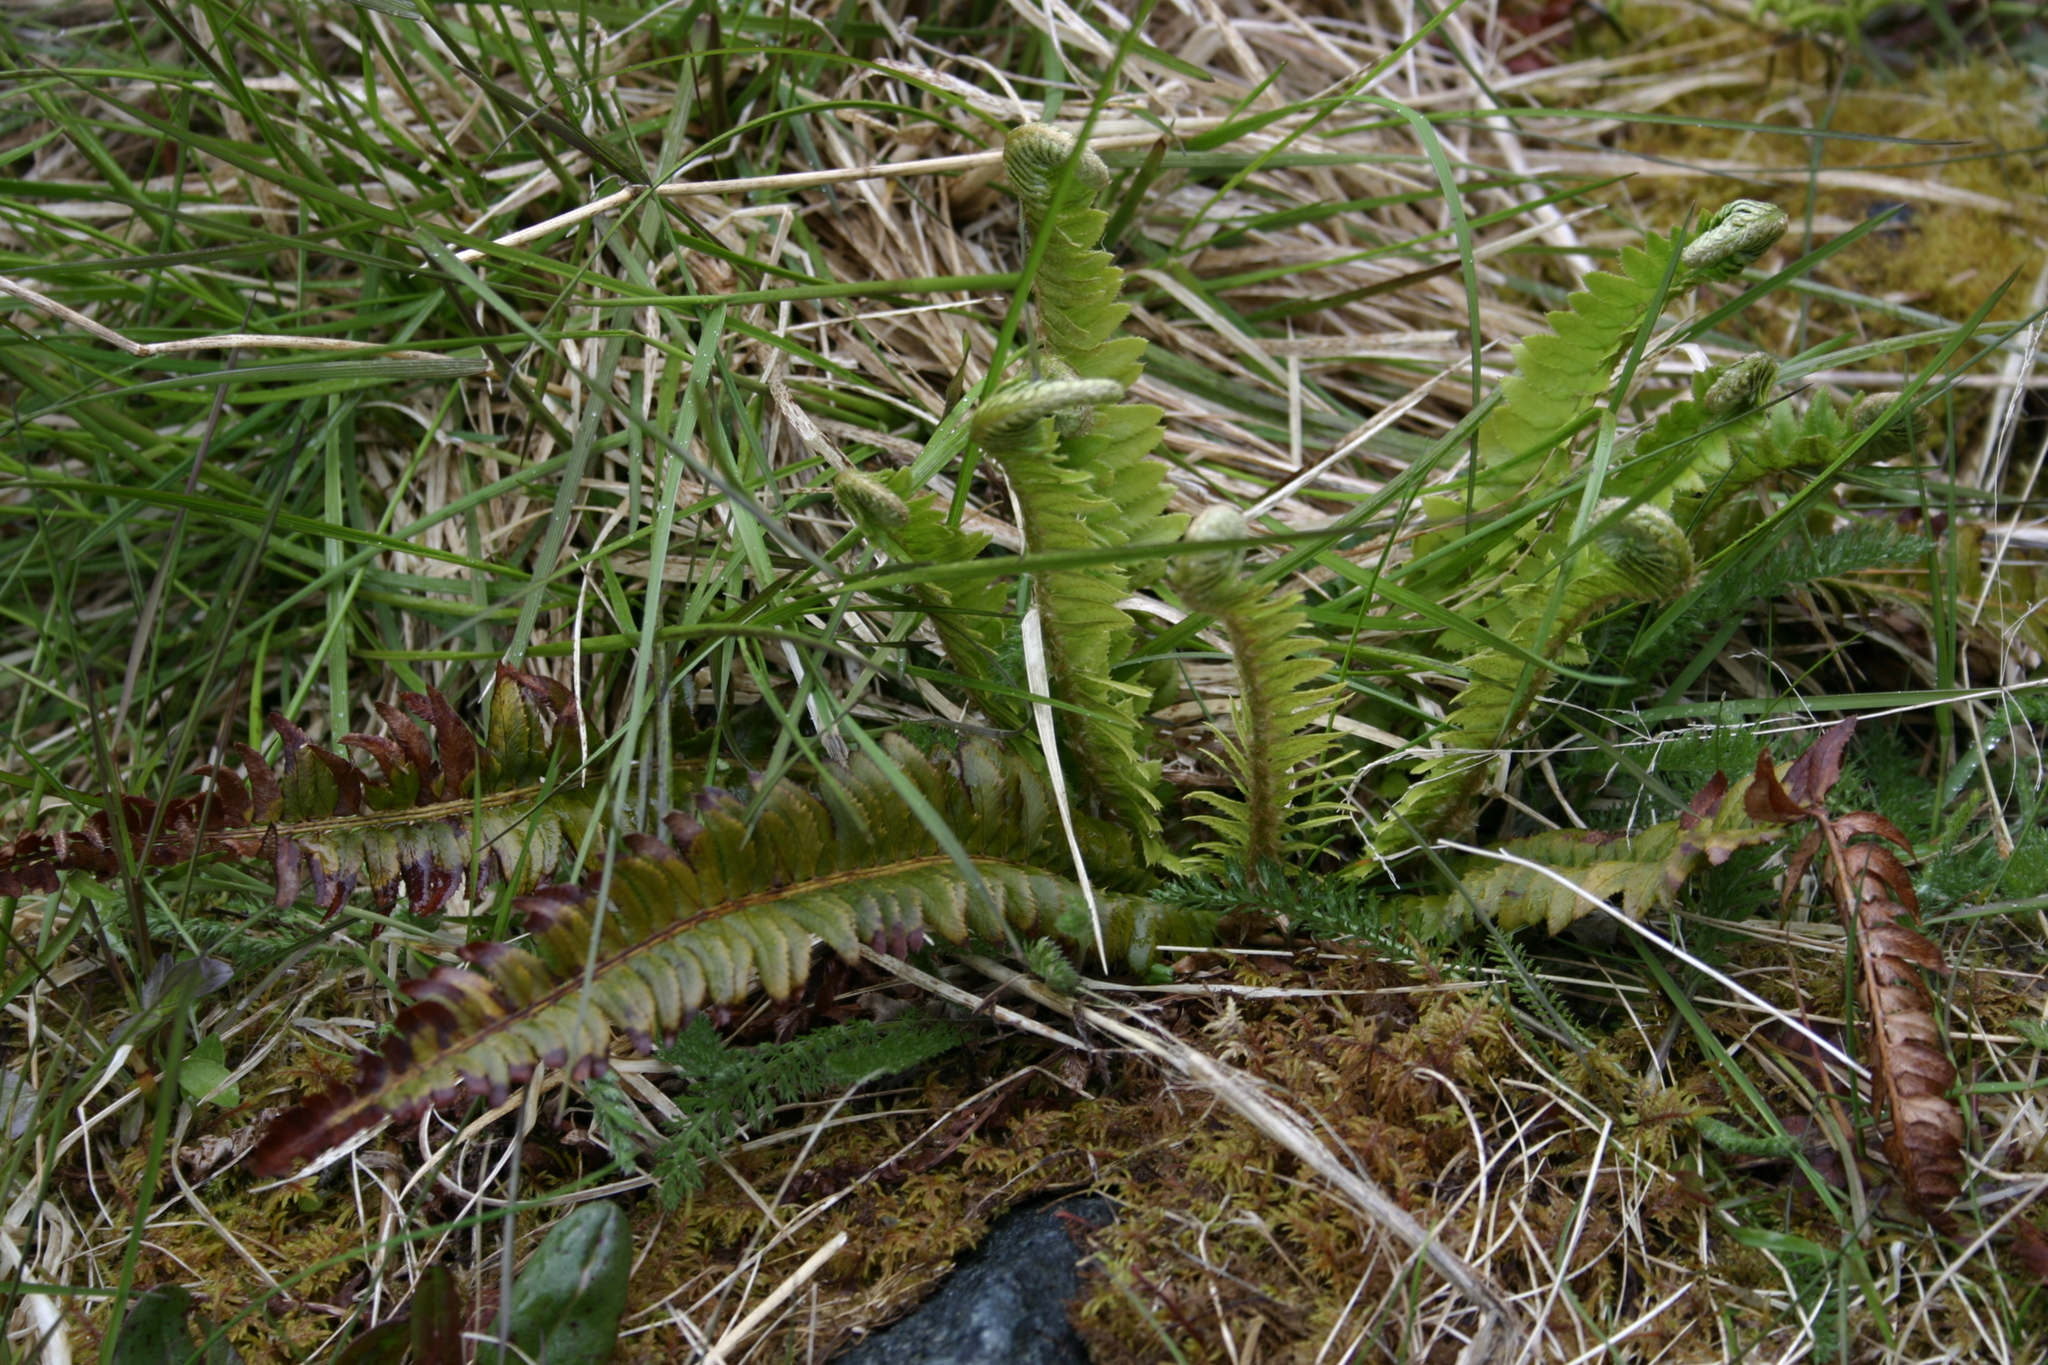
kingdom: Plantae
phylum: Tracheophyta
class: Polypodiopsida
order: Polypodiales
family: Dryopteridaceae
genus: Polystichum
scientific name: Polystichum lonchitis
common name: Holly fern
